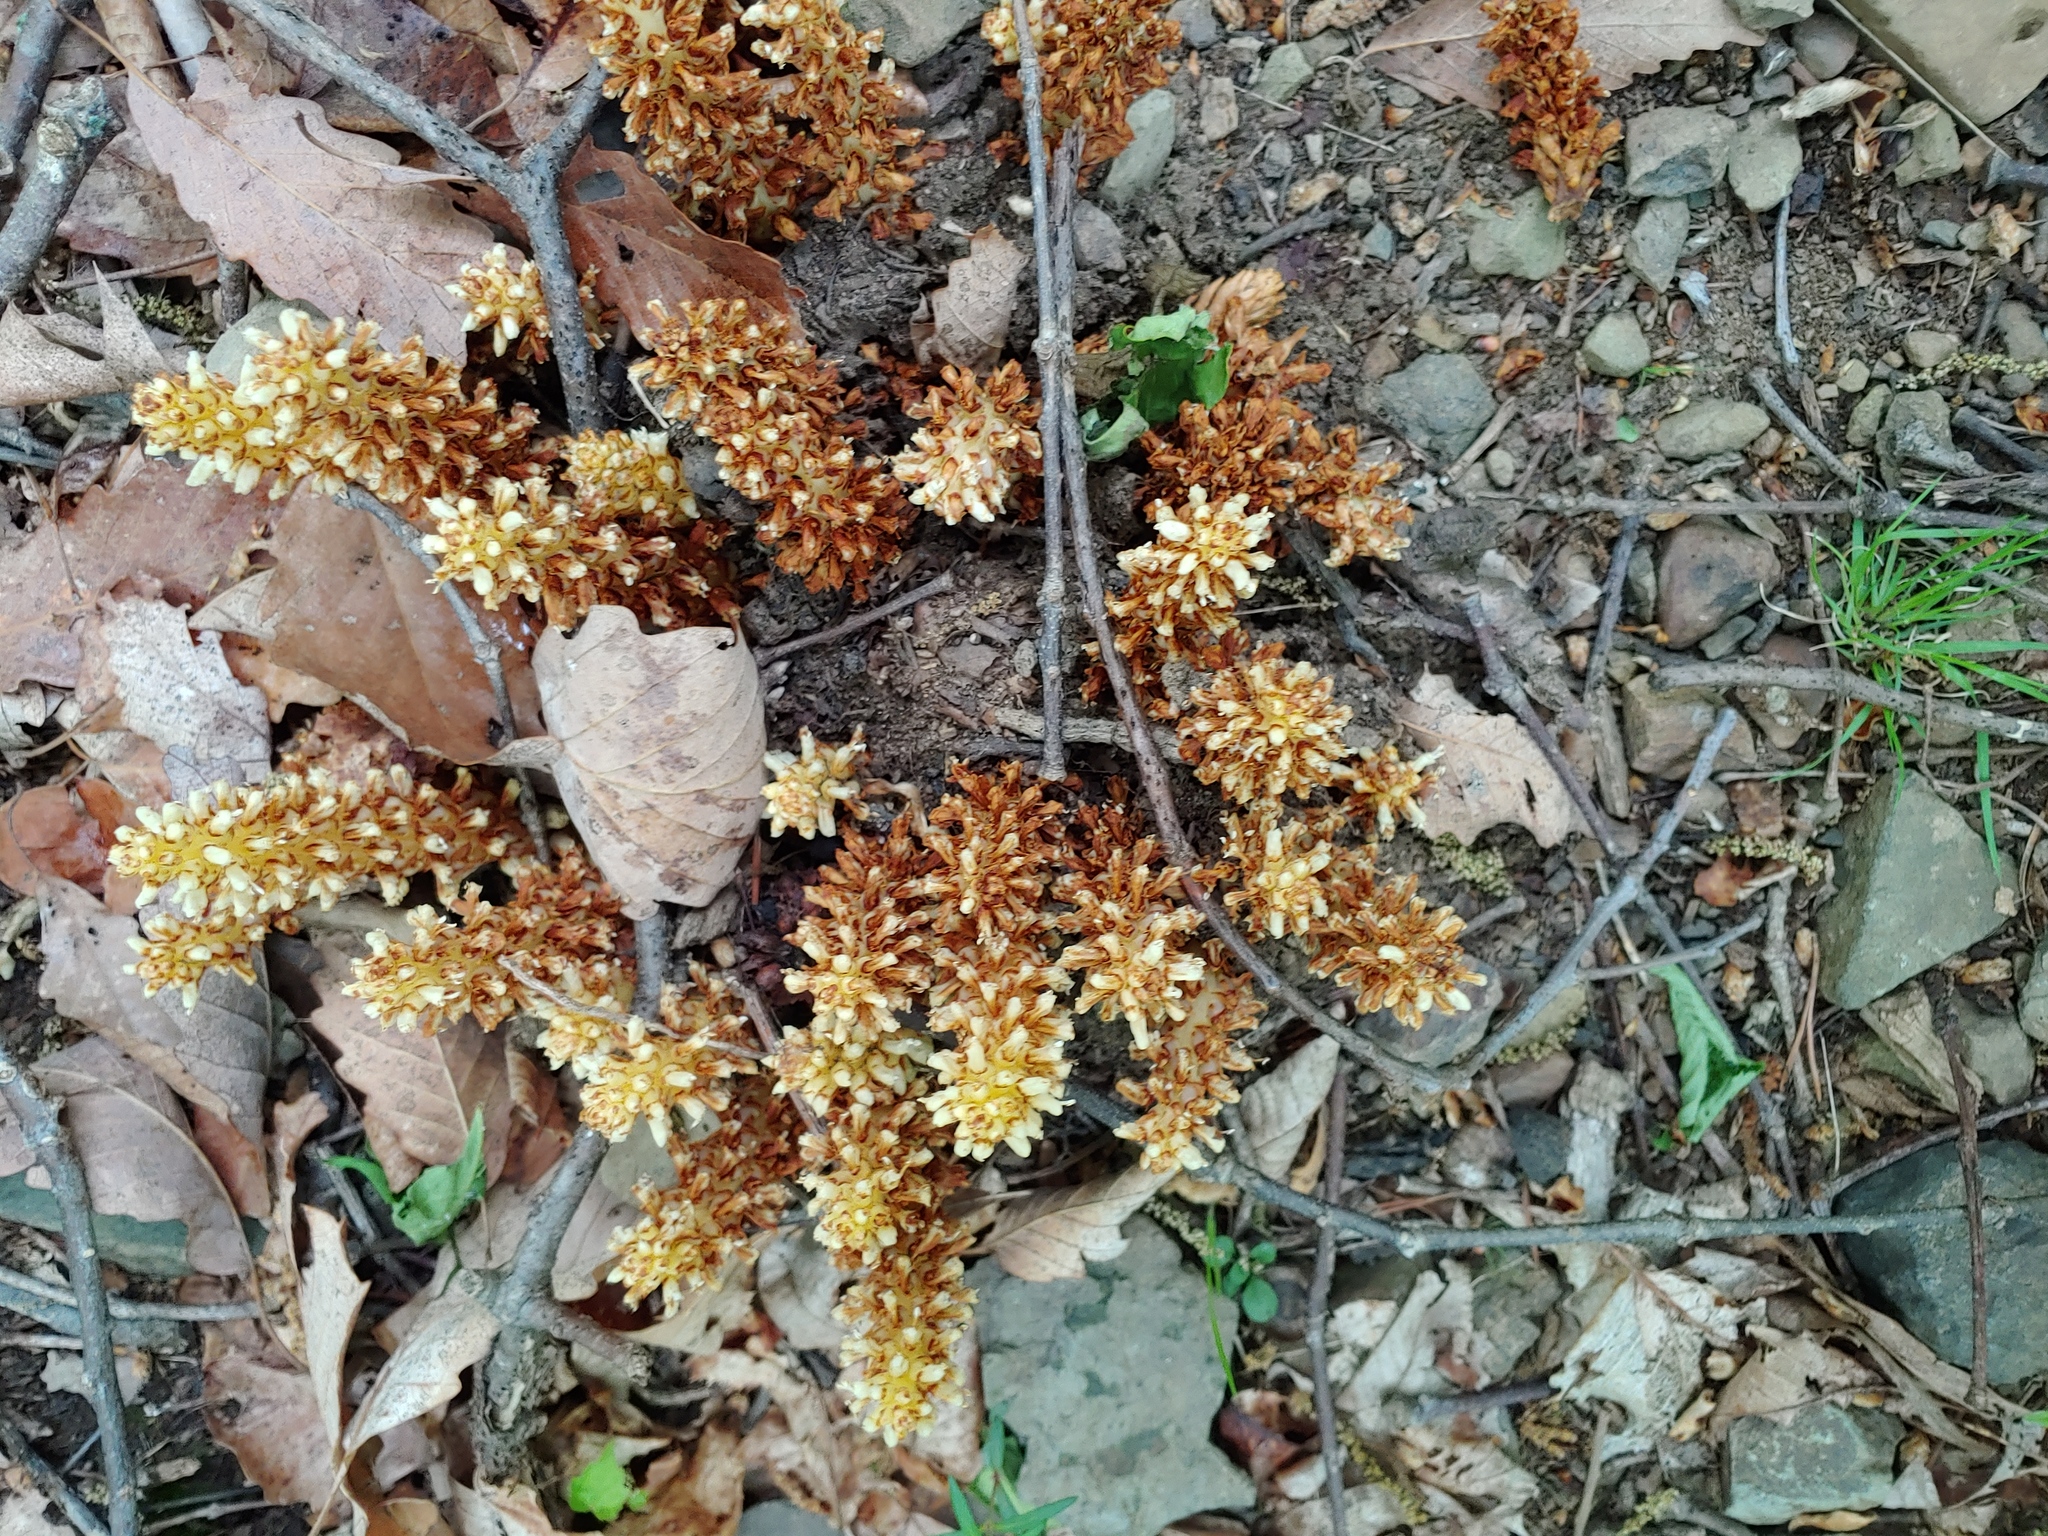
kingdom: Plantae
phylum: Tracheophyta
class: Magnoliopsida
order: Lamiales
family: Orobanchaceae
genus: Conopholis
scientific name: Conopholis americana
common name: American cancer-root
